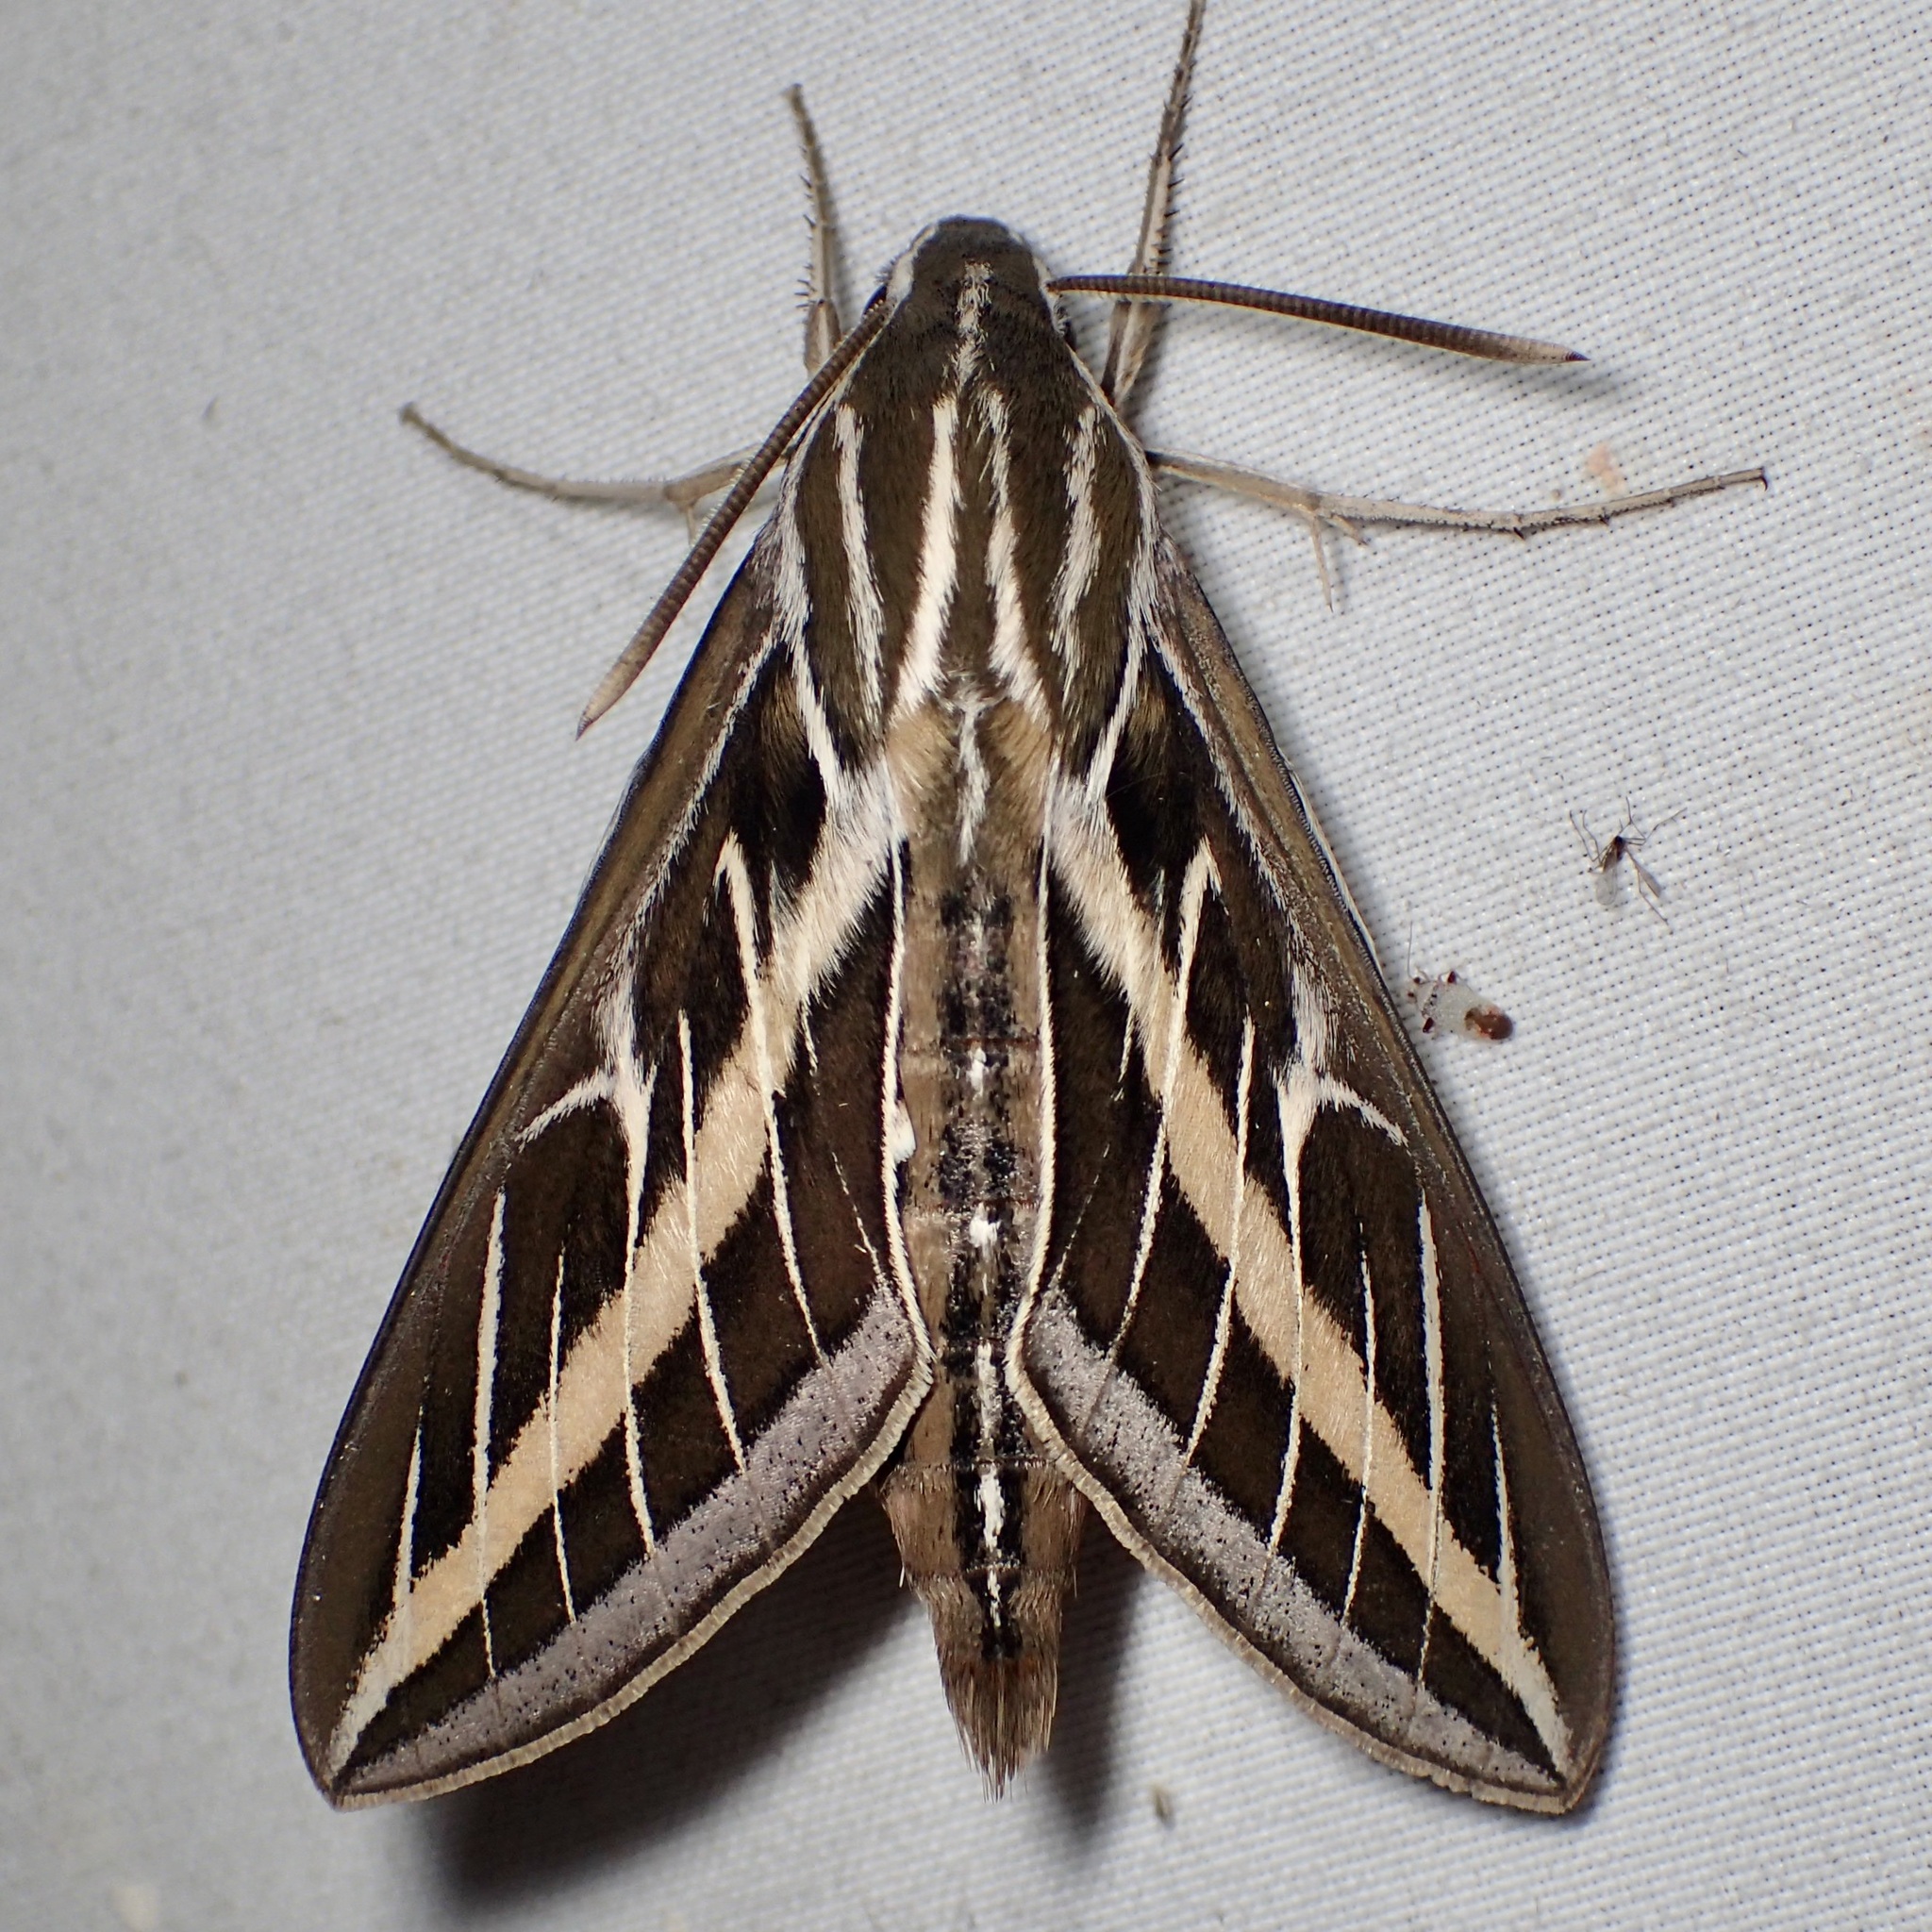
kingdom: Animalia
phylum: Arthropoda
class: Insecta
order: Lepidoptera
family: Sphingidae
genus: Hyles
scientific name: Hyles lineata
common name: White-lined sphinx
